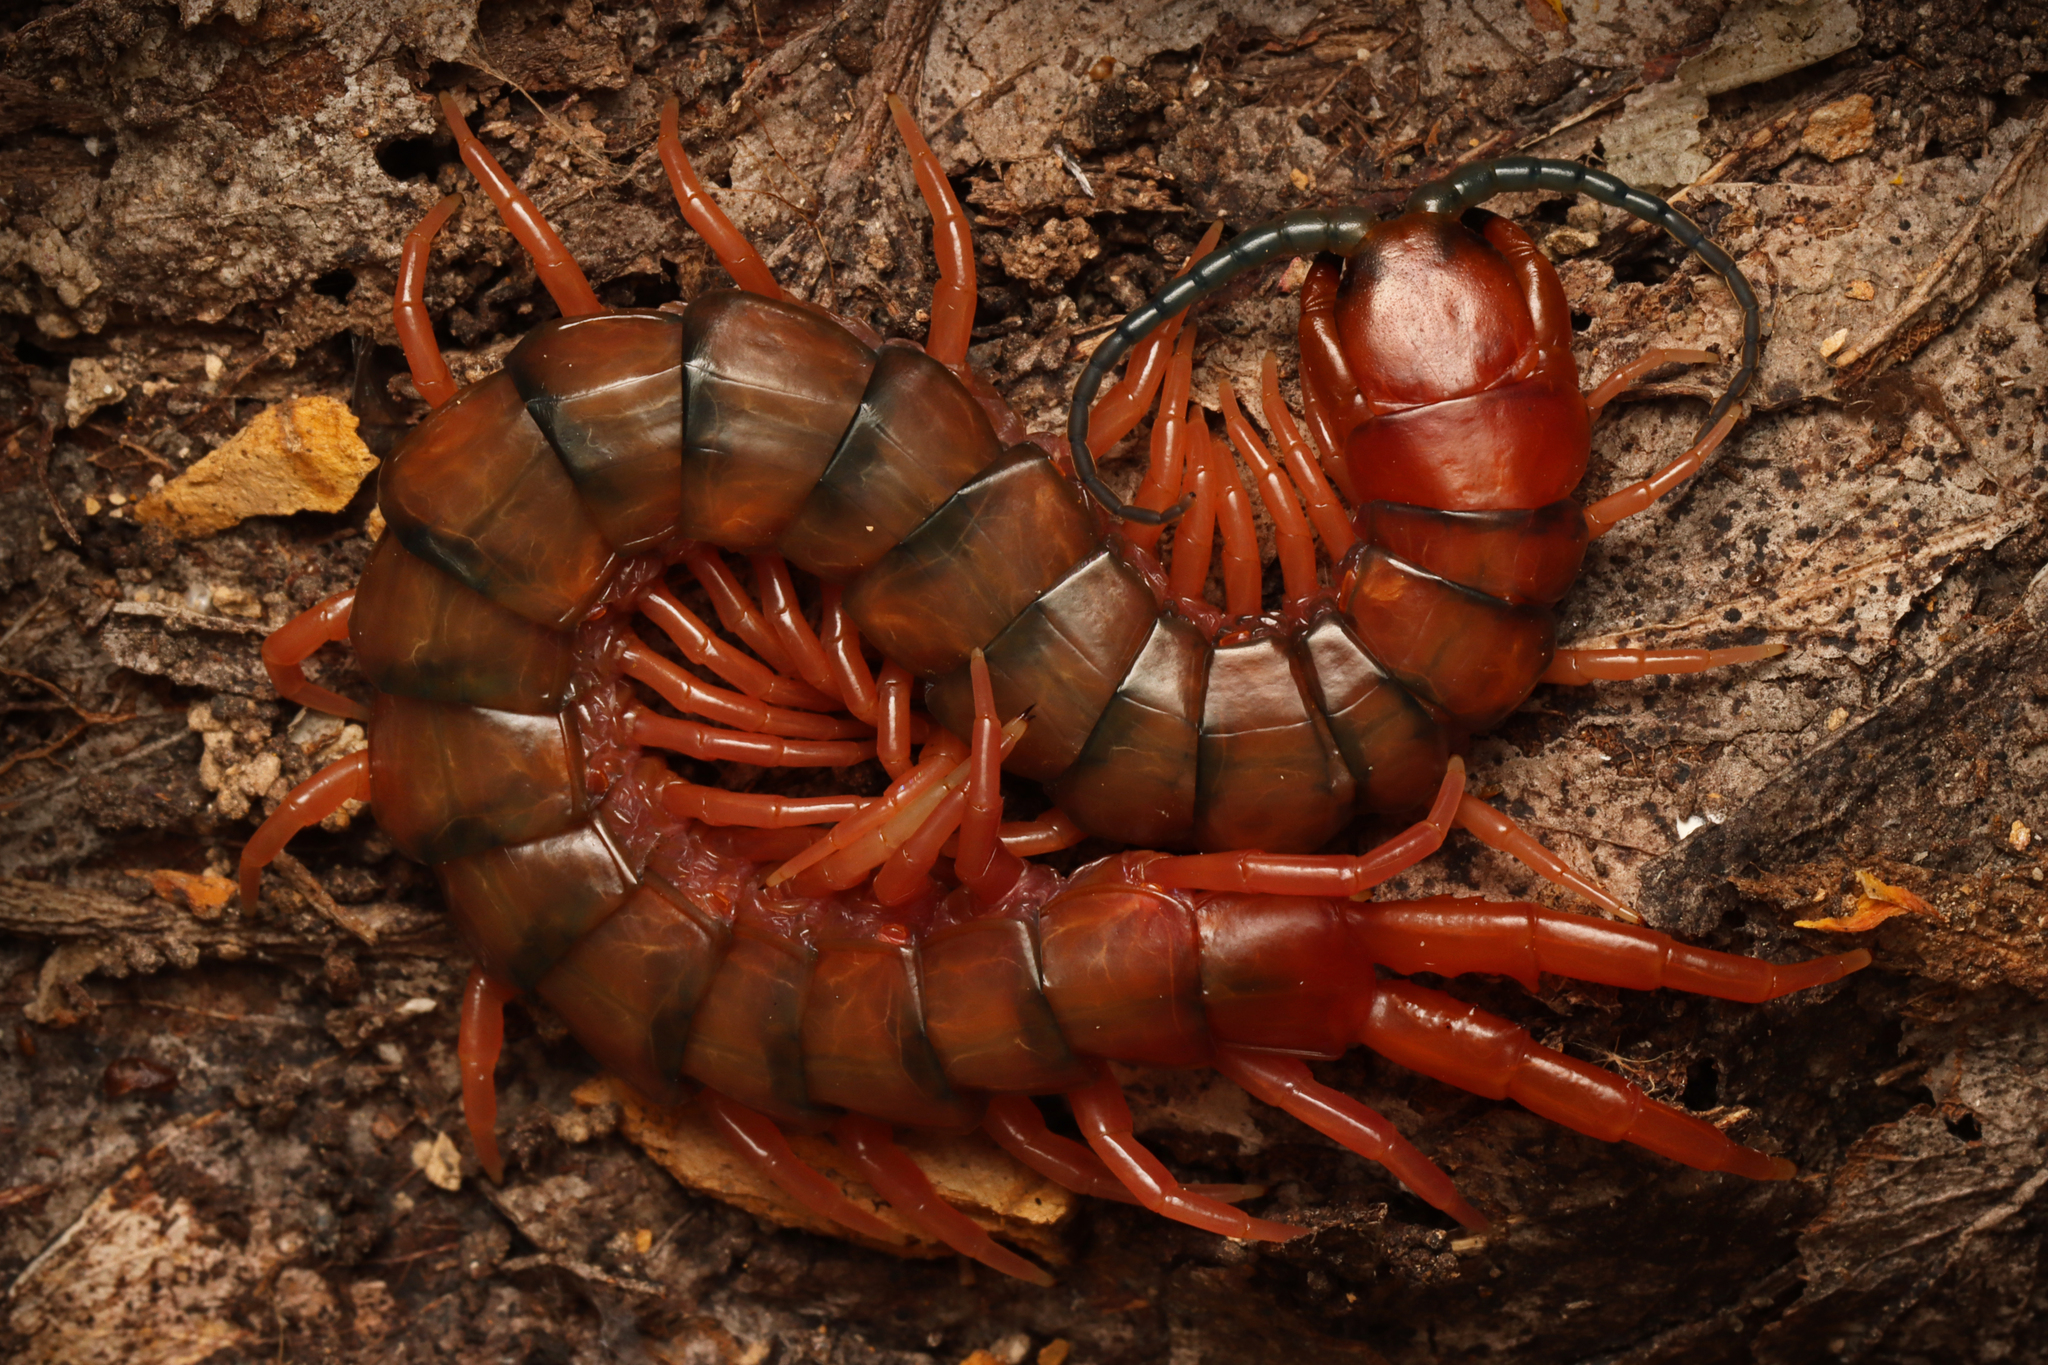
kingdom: Animalia
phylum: Arthropoda
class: Chilopoda
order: Scolopendromorpha
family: Scolopendridae
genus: Cormocephalus
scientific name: Cormocephalus aurantiipes
